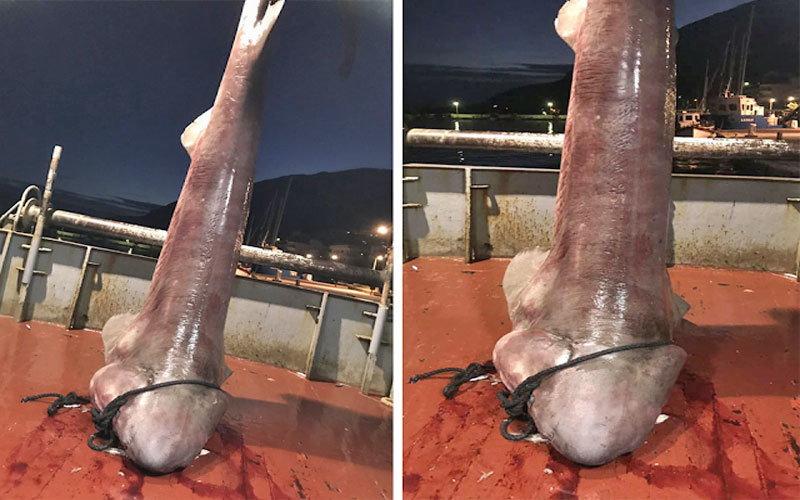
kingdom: Animalia
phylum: Chordata
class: Elasmobranchii
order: Hexanchiformes
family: Hexanchidae
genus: Hexanchus
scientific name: Hexanchus griseus
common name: Bluntnose sixgill shark
